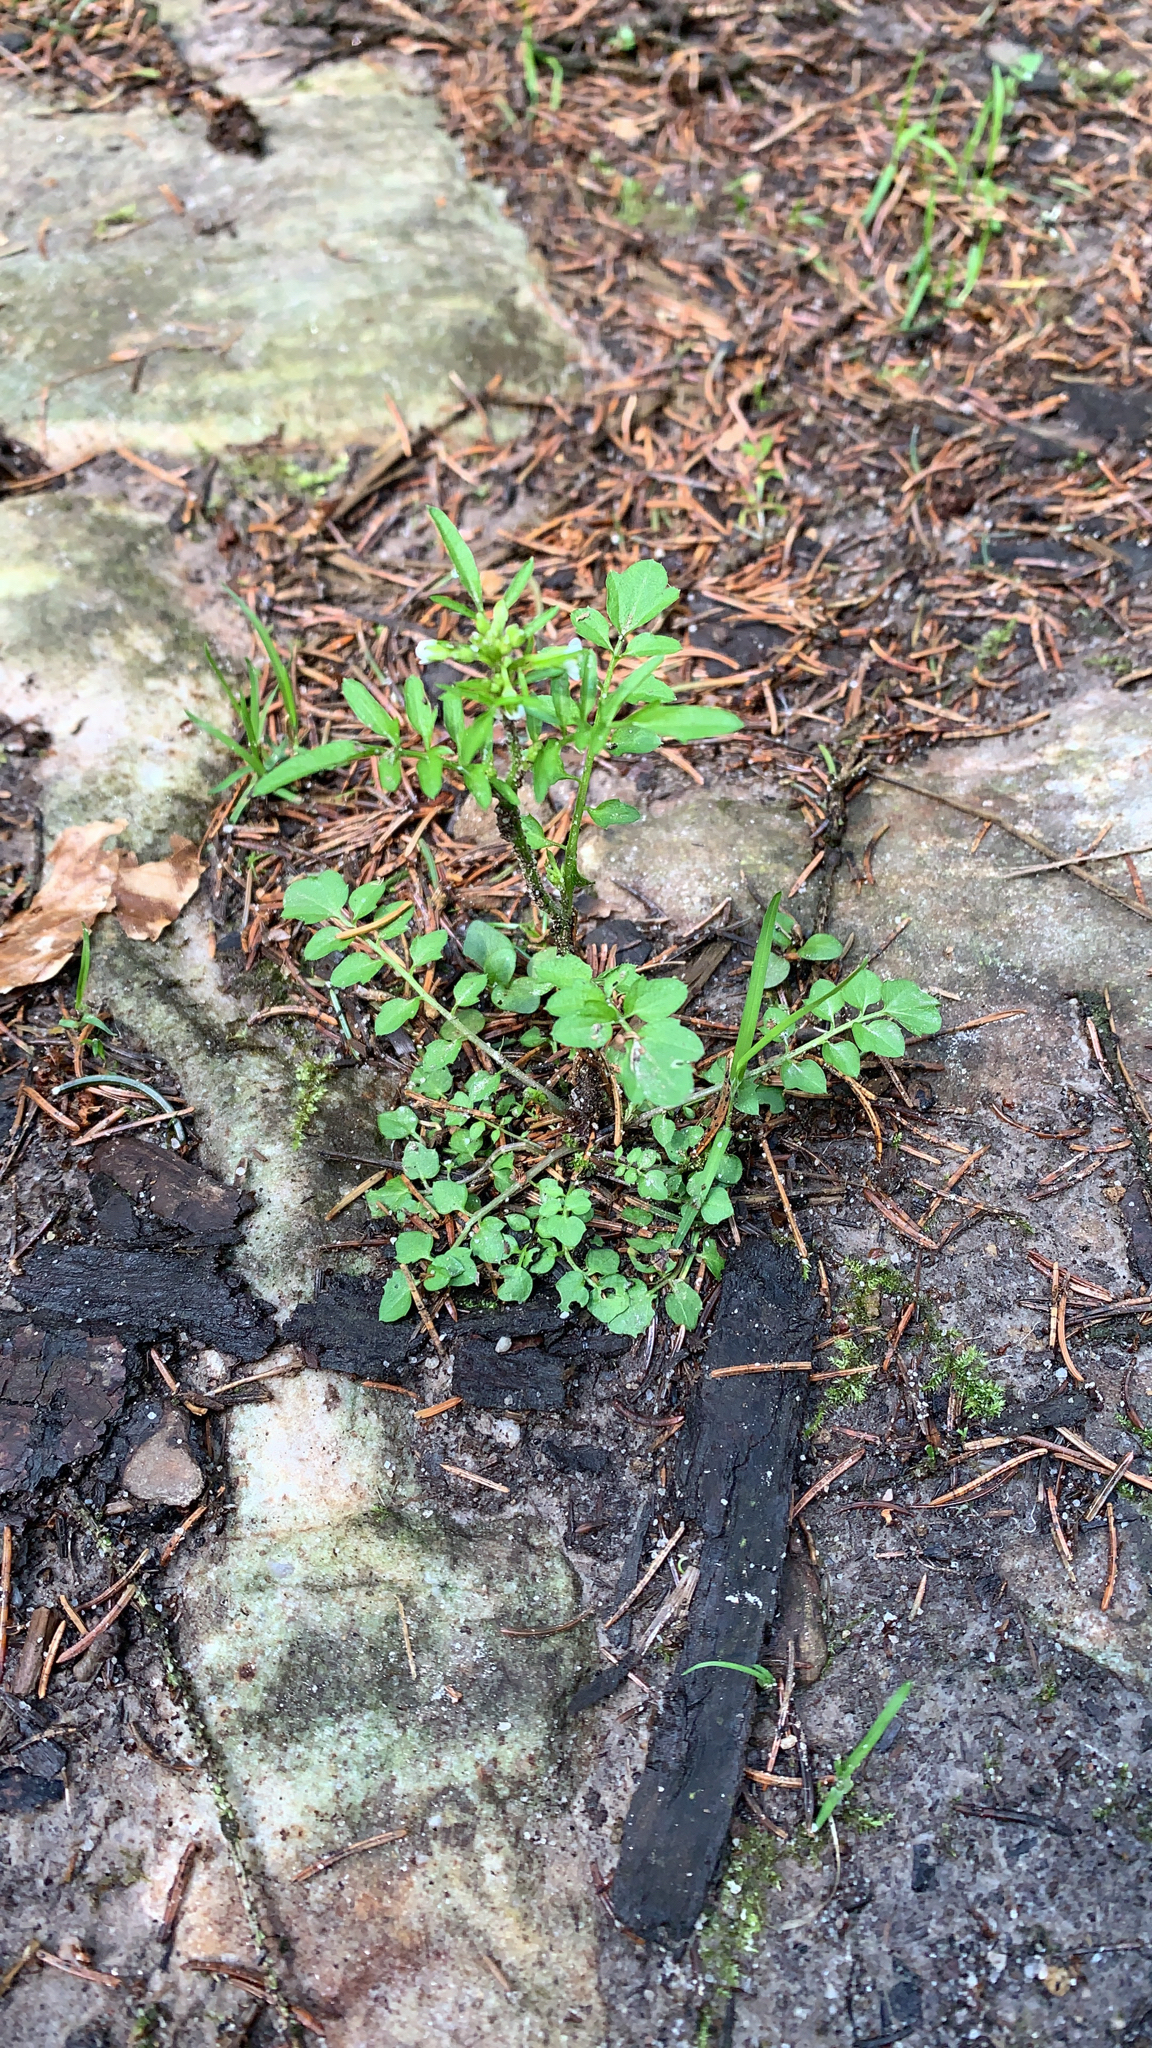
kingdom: Plantae
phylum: Tracheophyta
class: Magnoliopsida
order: Brassicales
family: Brassicaceae
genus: Cardamine
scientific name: Cardamine flexuosa
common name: Woodland bittercress
